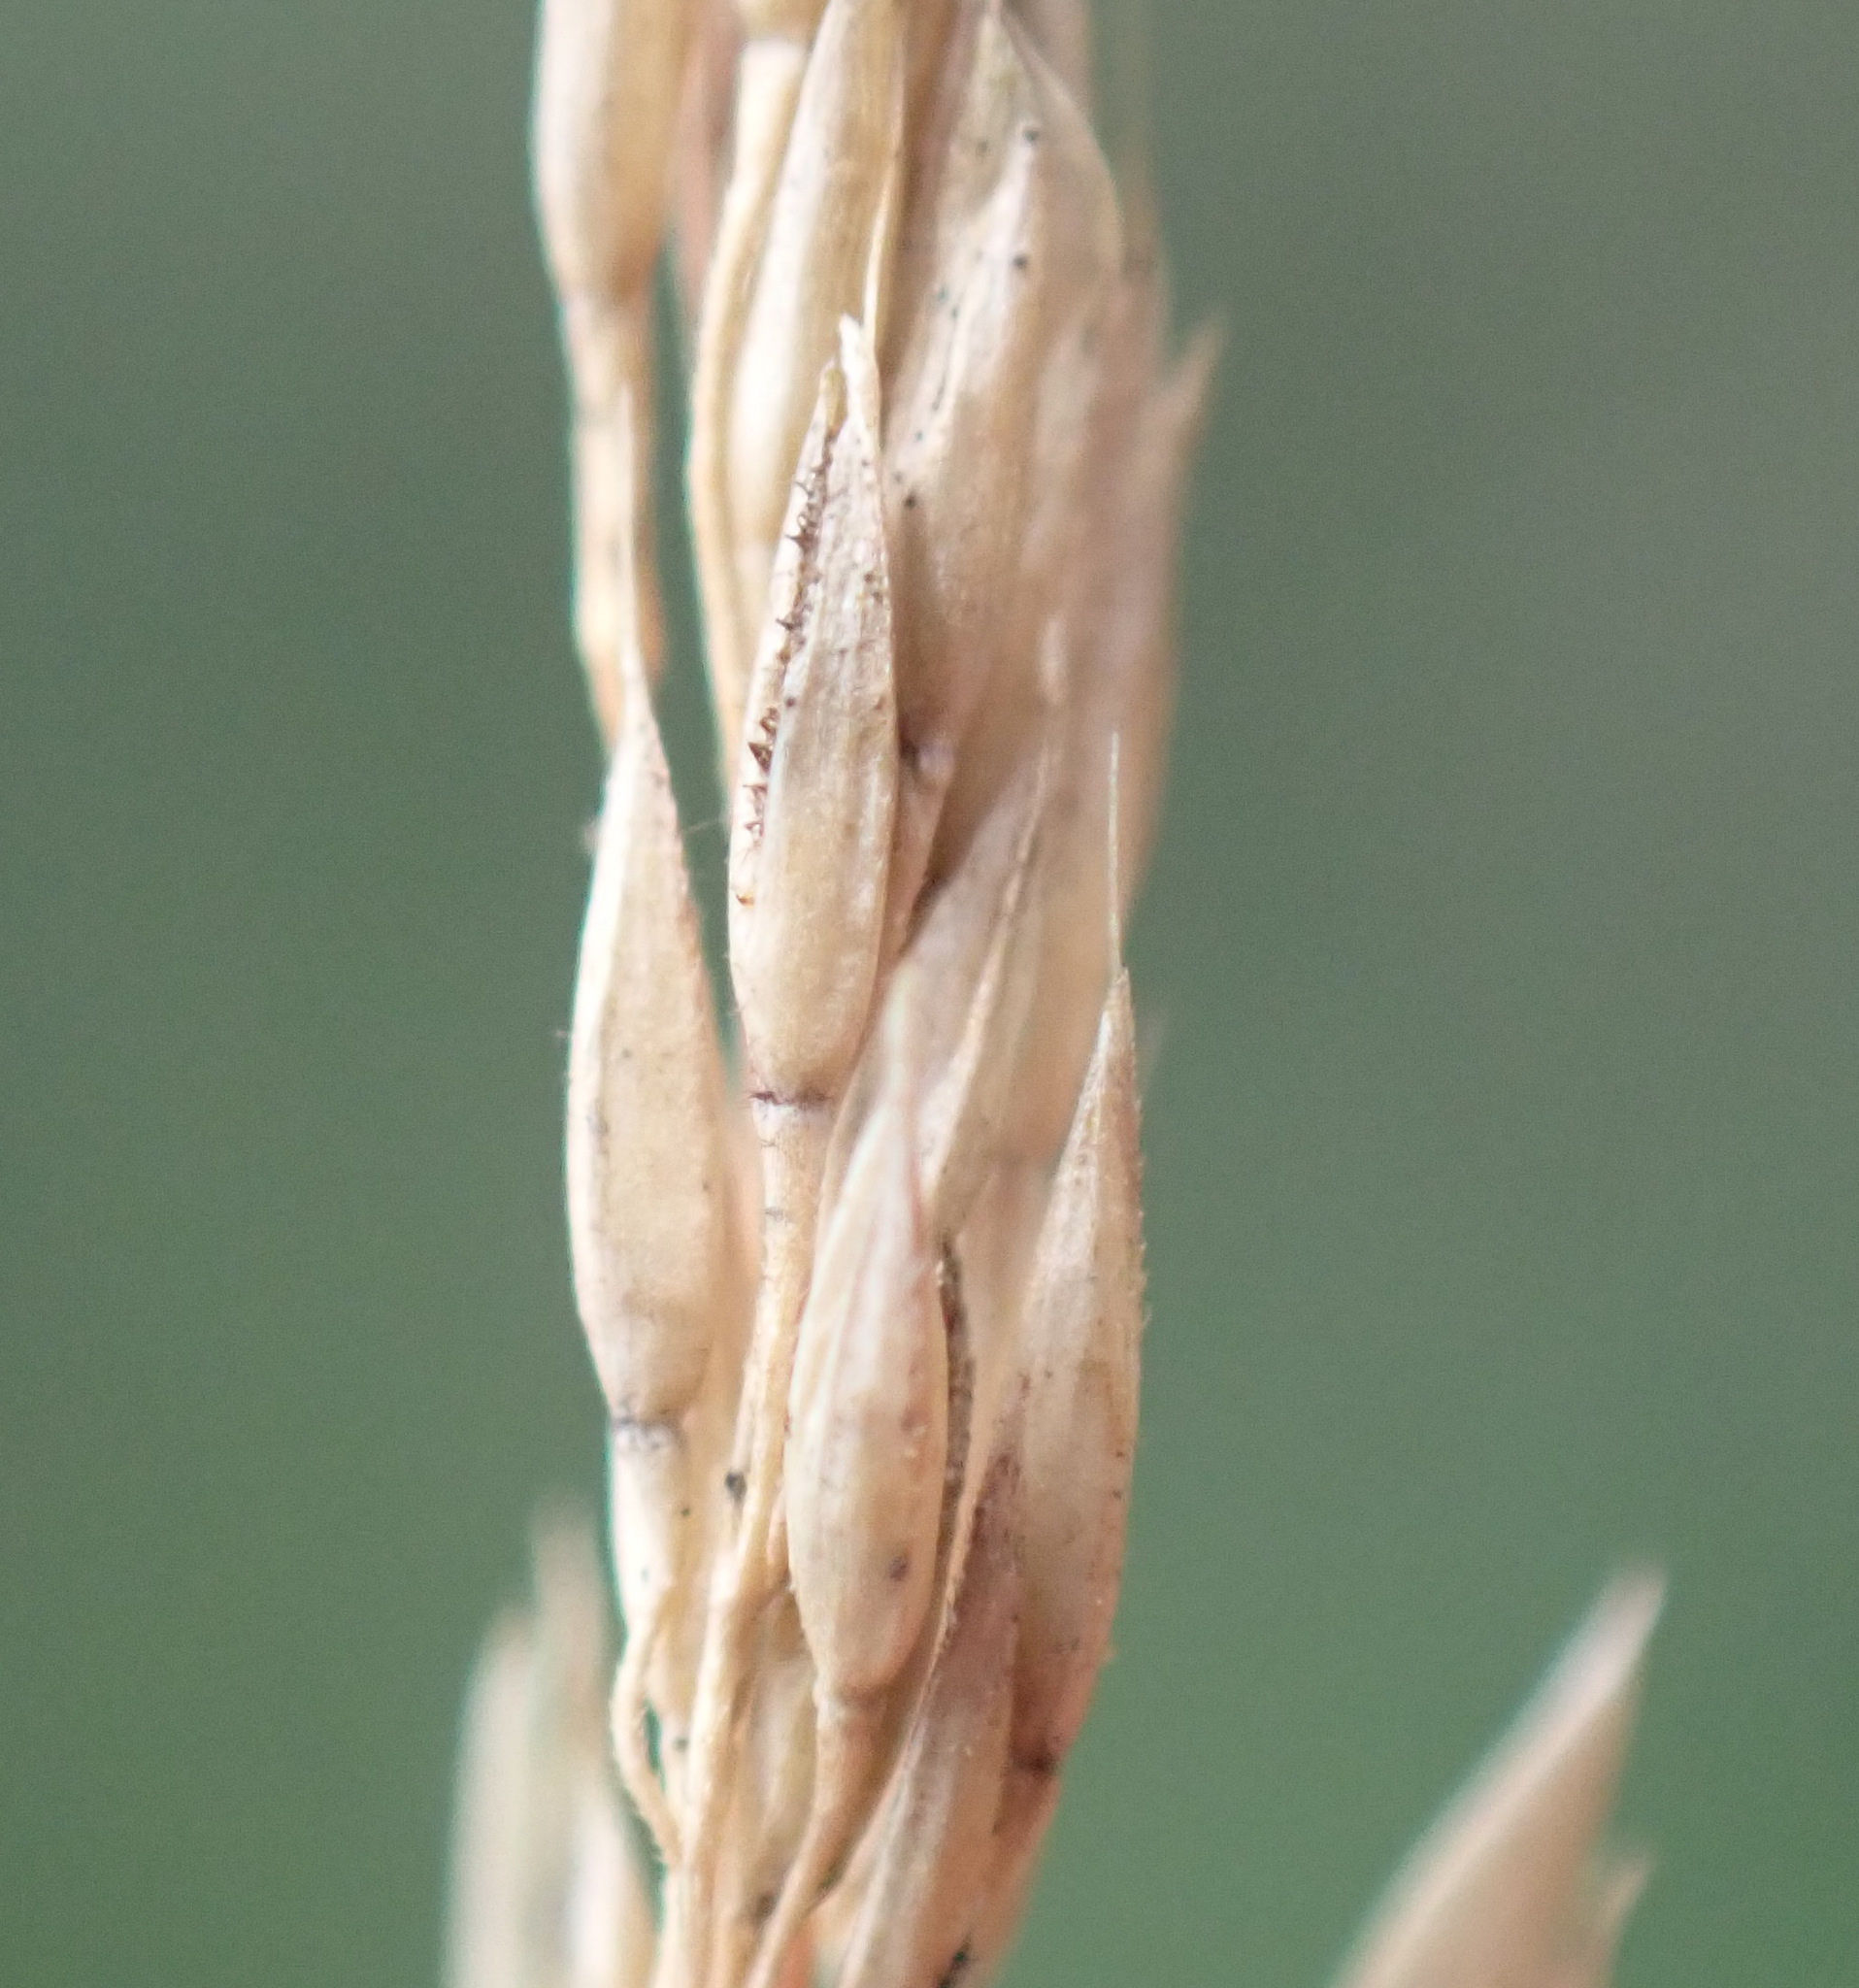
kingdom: Plantae
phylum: Tracheophyta
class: Liliopsida
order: Poales
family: Poaceae
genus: Agrostis
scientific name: Agrostis canina
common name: Velvet bent
